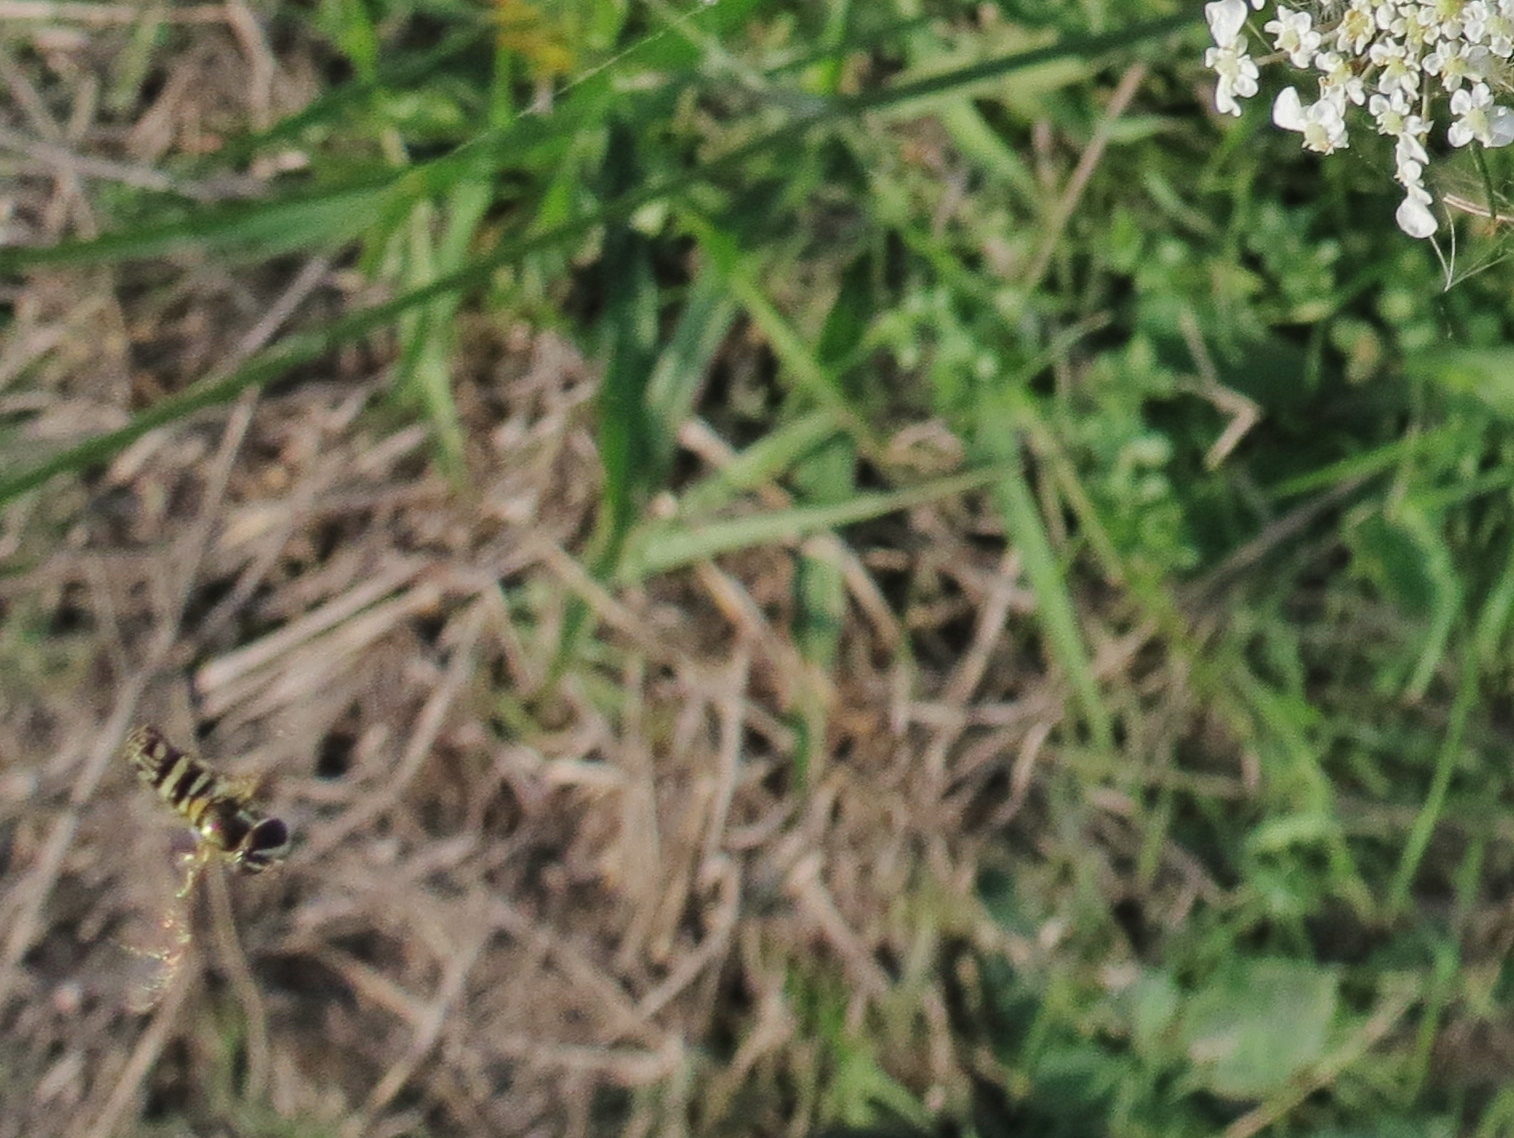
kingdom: Animalia
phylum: Arthropoda
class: Insecta
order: Diptera
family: Syrphidae
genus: Allograpta
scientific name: Allograpta exotica
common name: Syrphid fly
